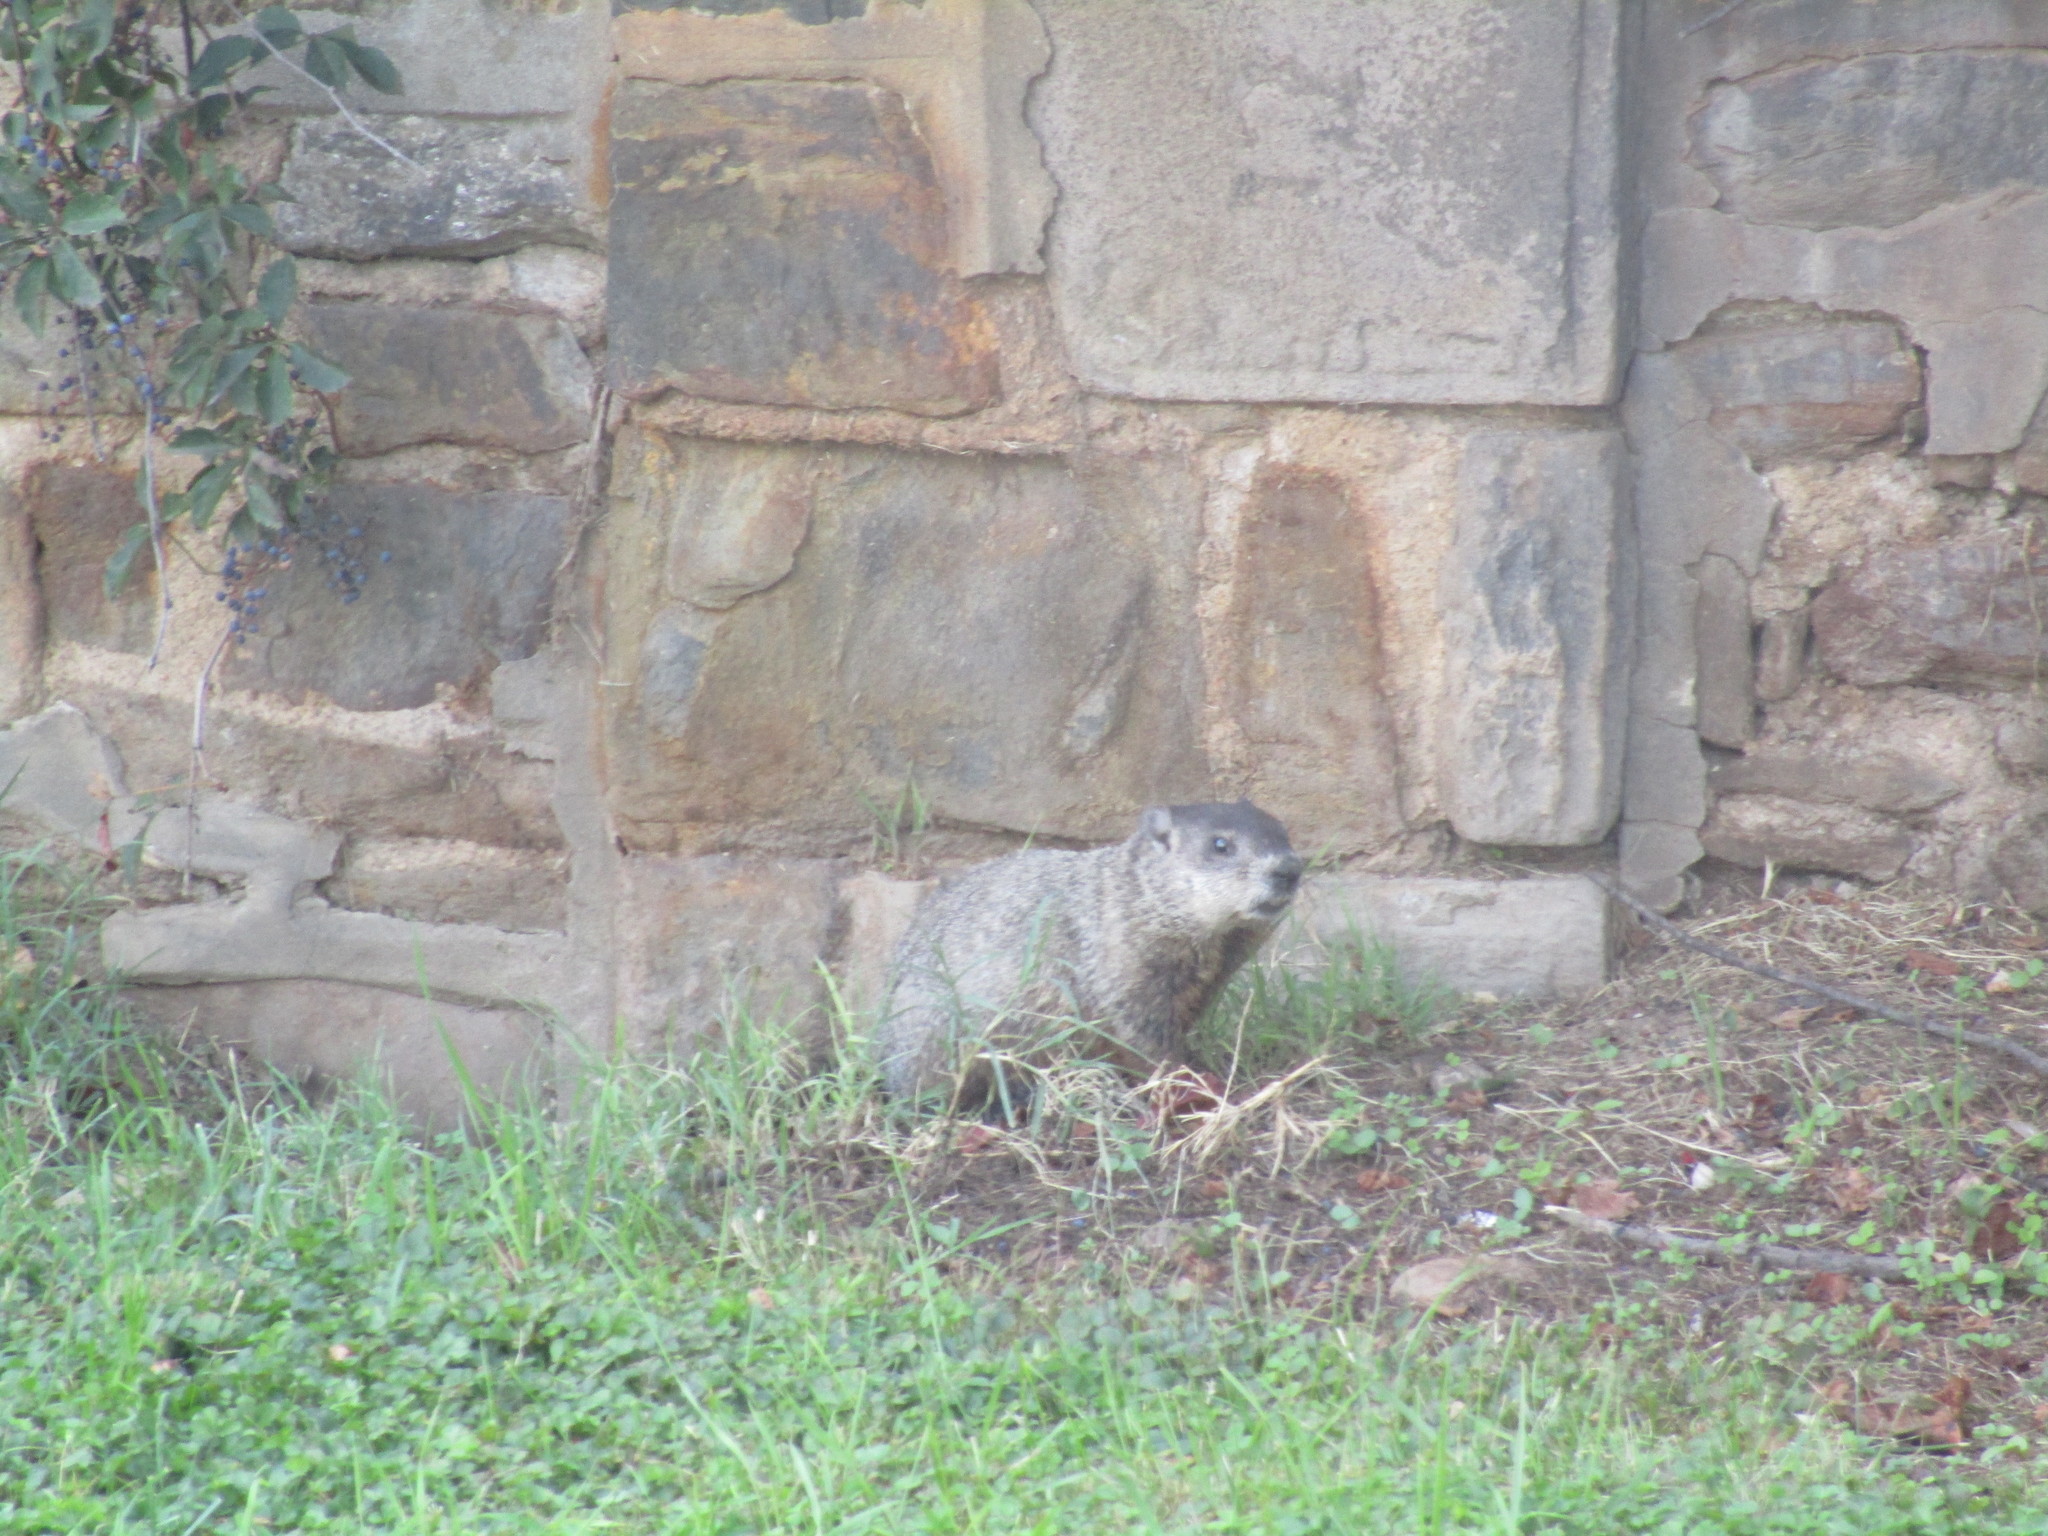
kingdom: Animalia
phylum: Chordata
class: Mammalia
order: Rodentia
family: Sciuridae
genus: Marmota
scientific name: Marmota monax
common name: Groundhog
